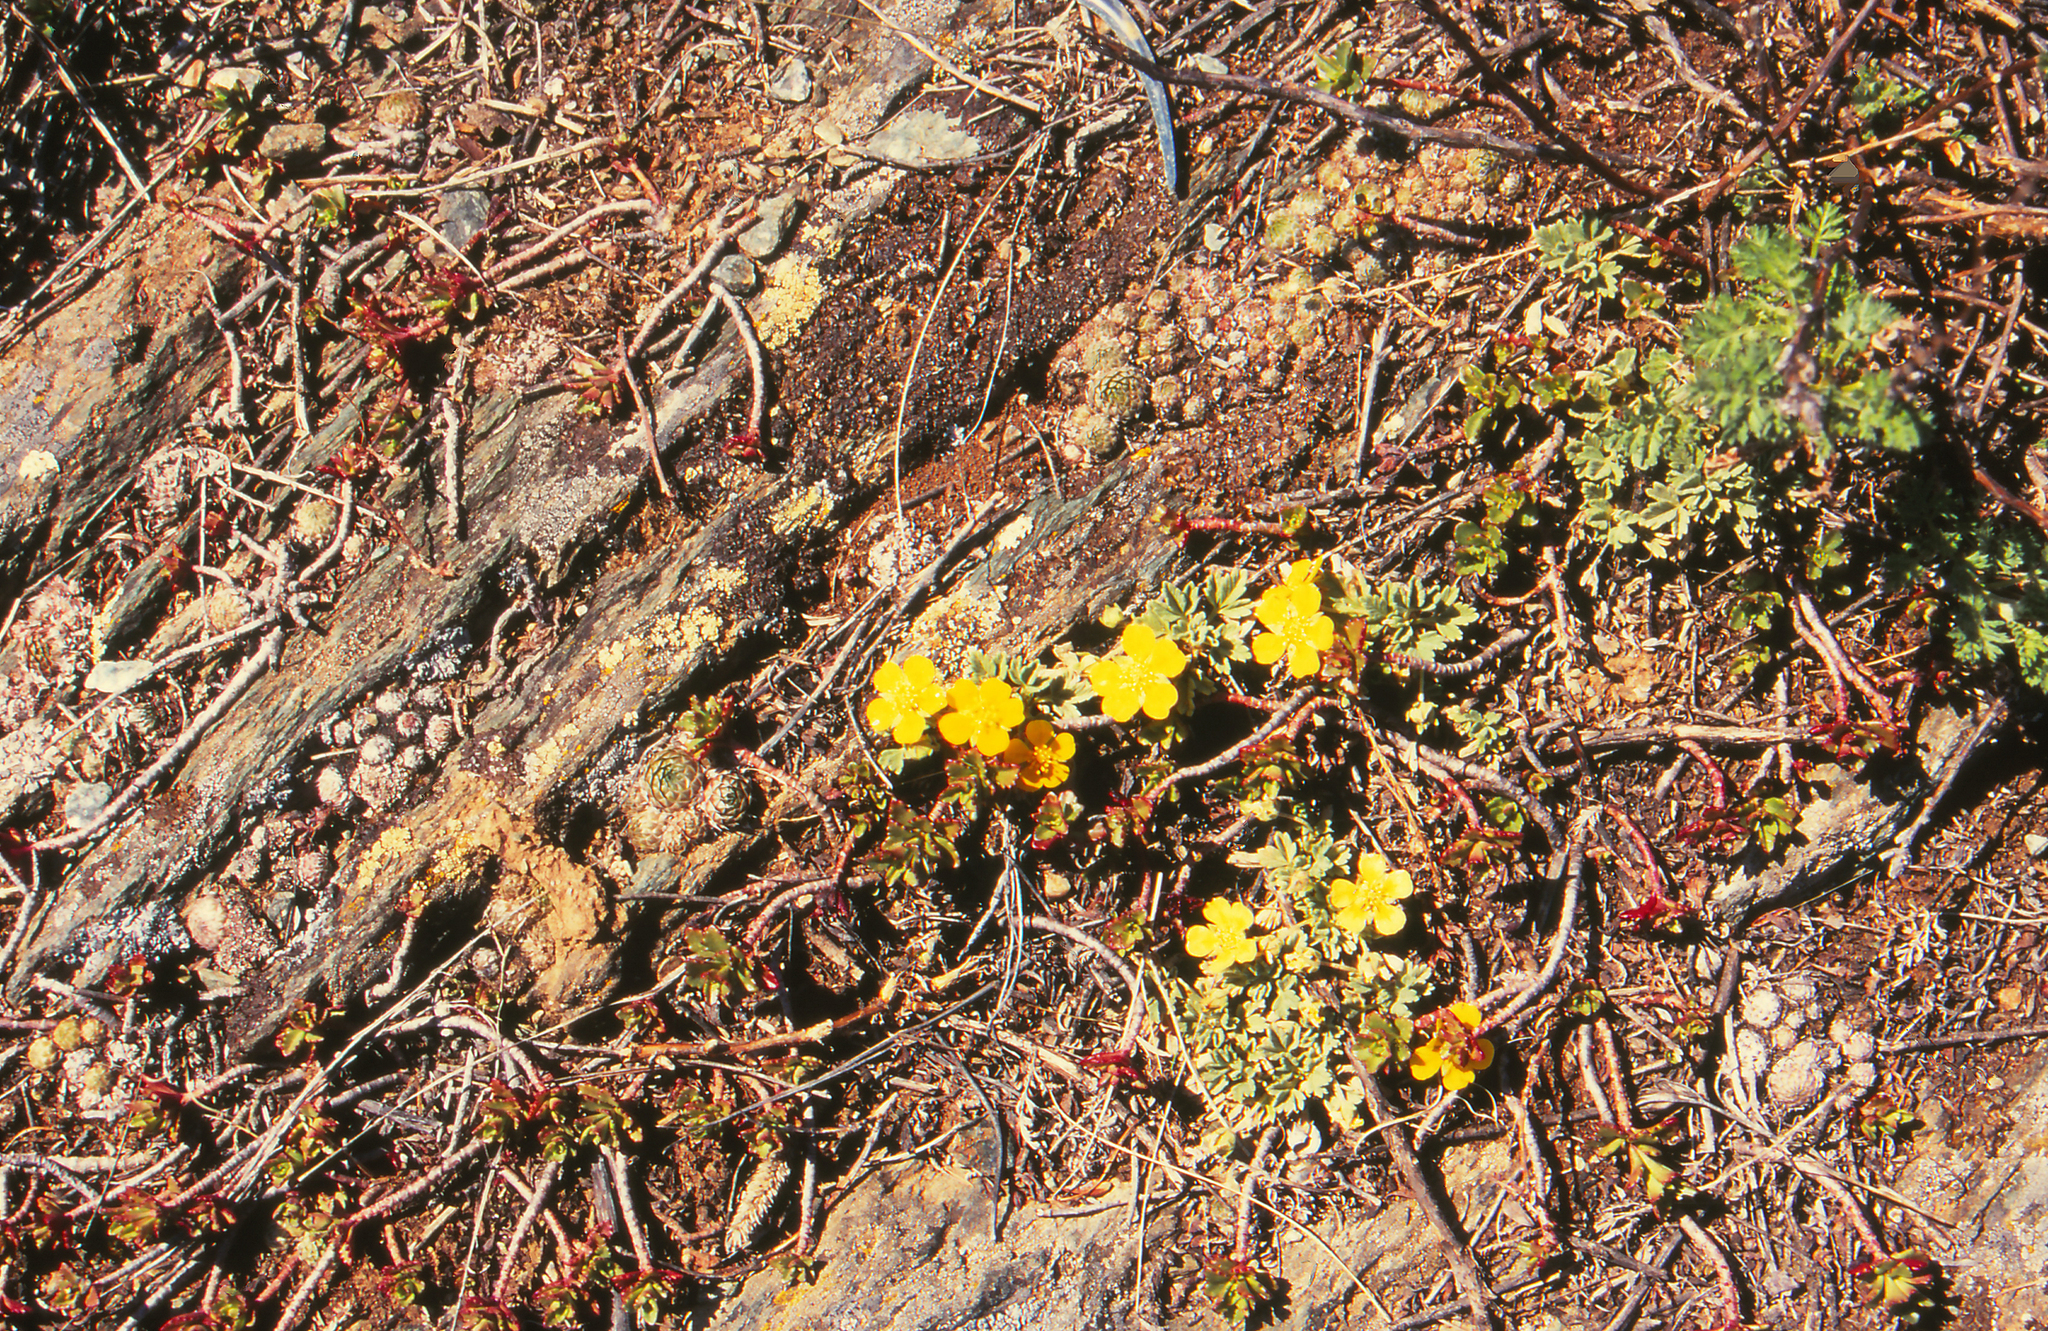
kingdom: Plantae
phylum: Tracheophyta
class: Magnoliopsida
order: Rosales
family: Rosaceae
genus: Potentilla
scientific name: Potentilla acaulis
